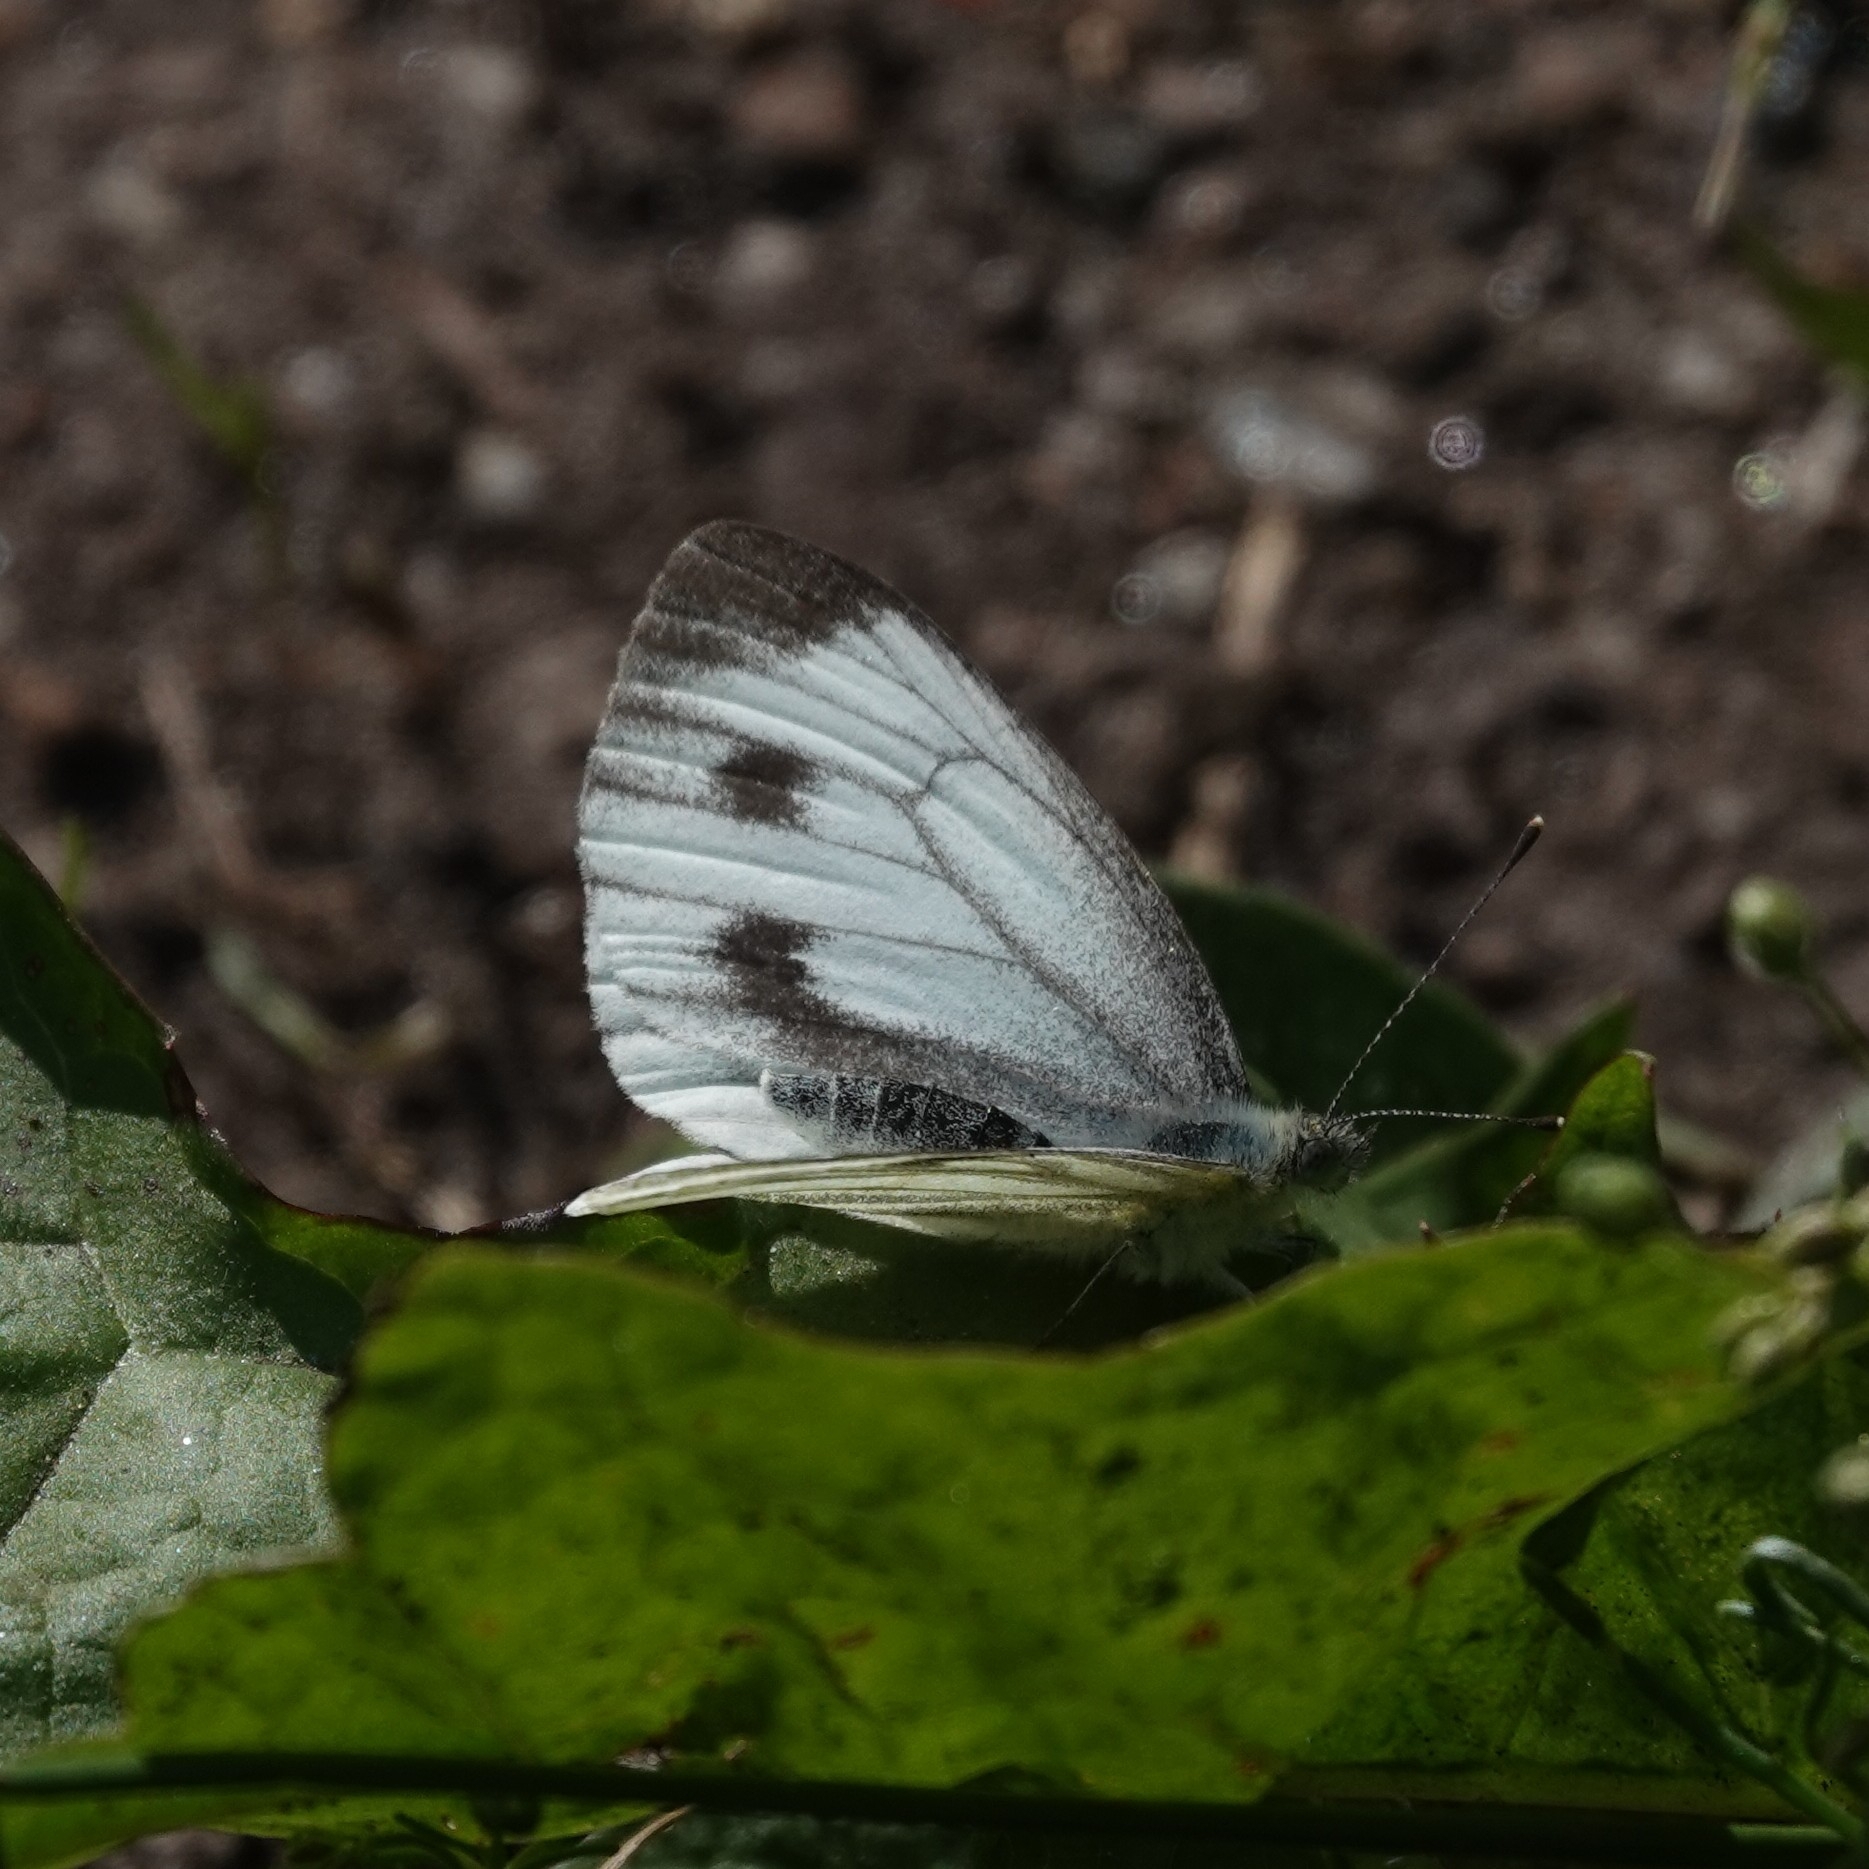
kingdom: Animalia
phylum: Arthropoda
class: Insecta
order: Lepidoptera
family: Pieridae
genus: Pieris
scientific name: Pieris napi
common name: Green-veined white
